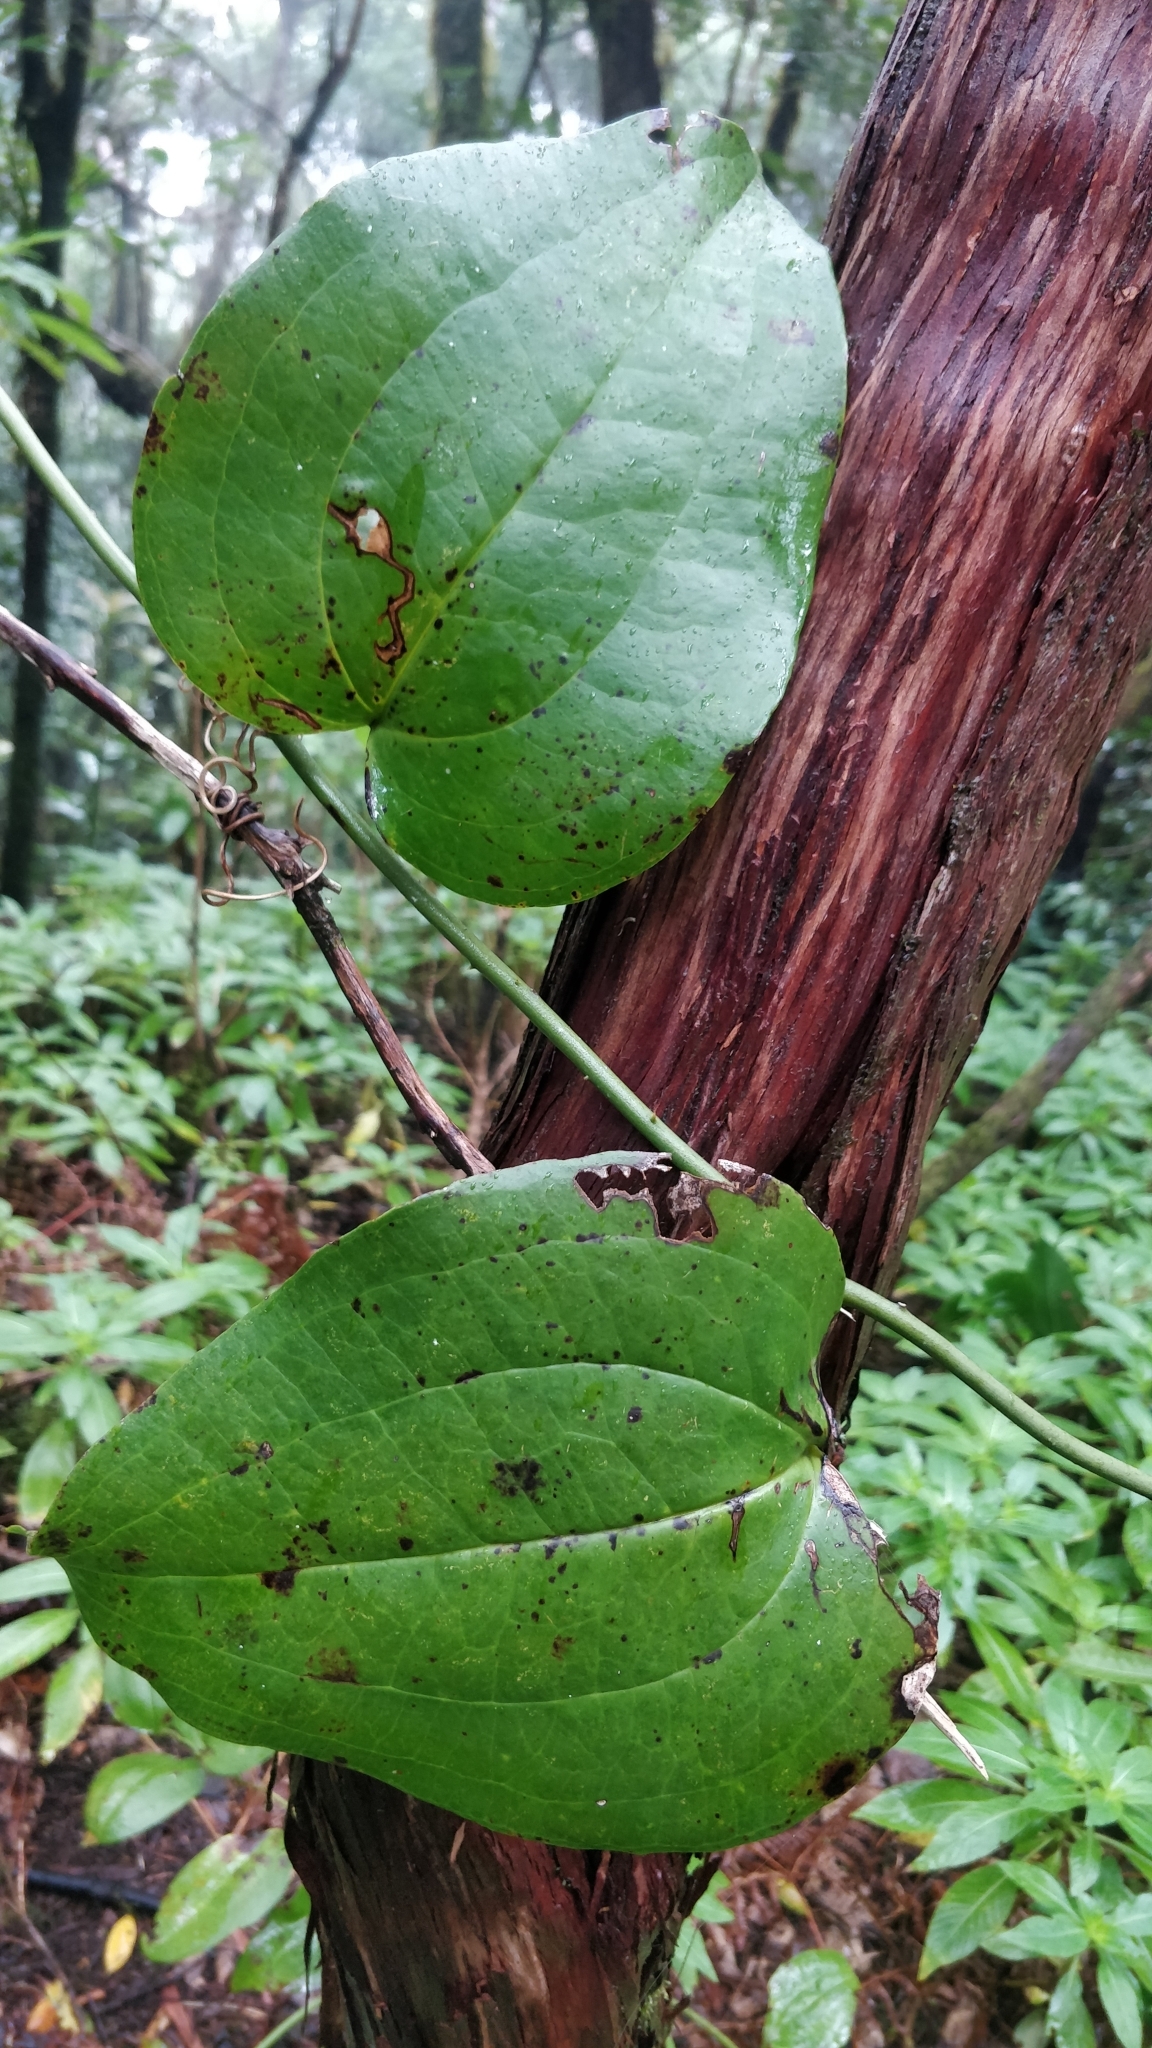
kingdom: Plantae
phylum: Tracheophyta
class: Liliopsida
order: Liliales
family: Smilacaceae
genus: Smilax
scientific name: Smilax canariensis
